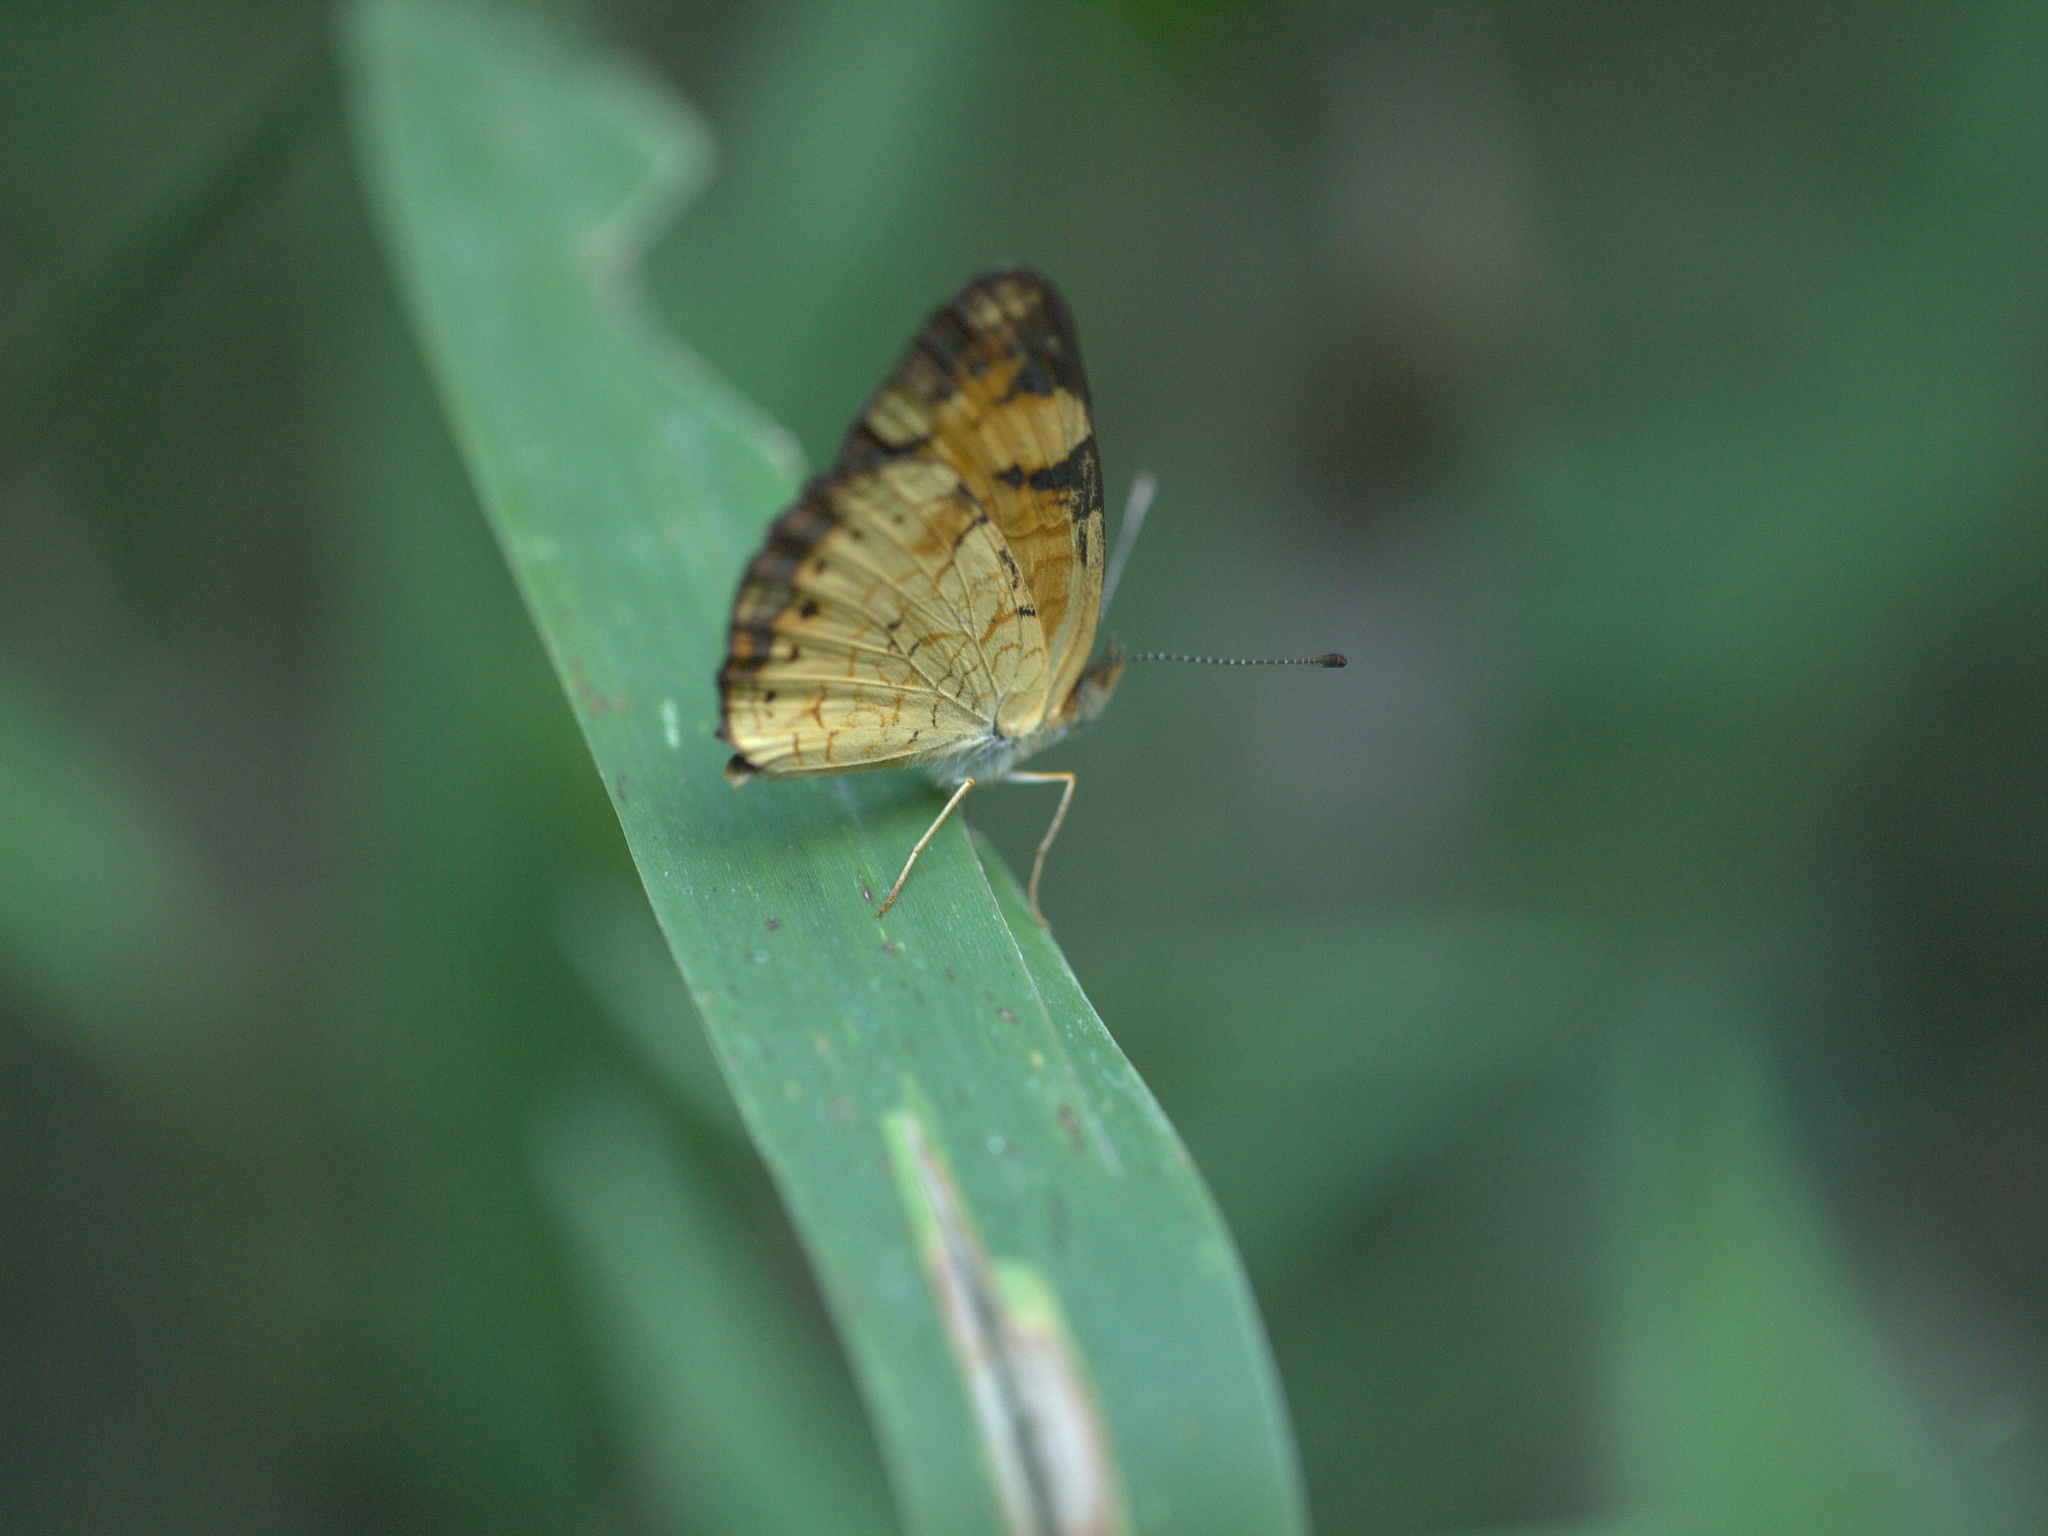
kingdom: Animalia
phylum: Arthropoda
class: Insecta
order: Lepidoptera
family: Nymphalidae
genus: Phyciodes
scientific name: Phyciodes tharos
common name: Pearl crescent
